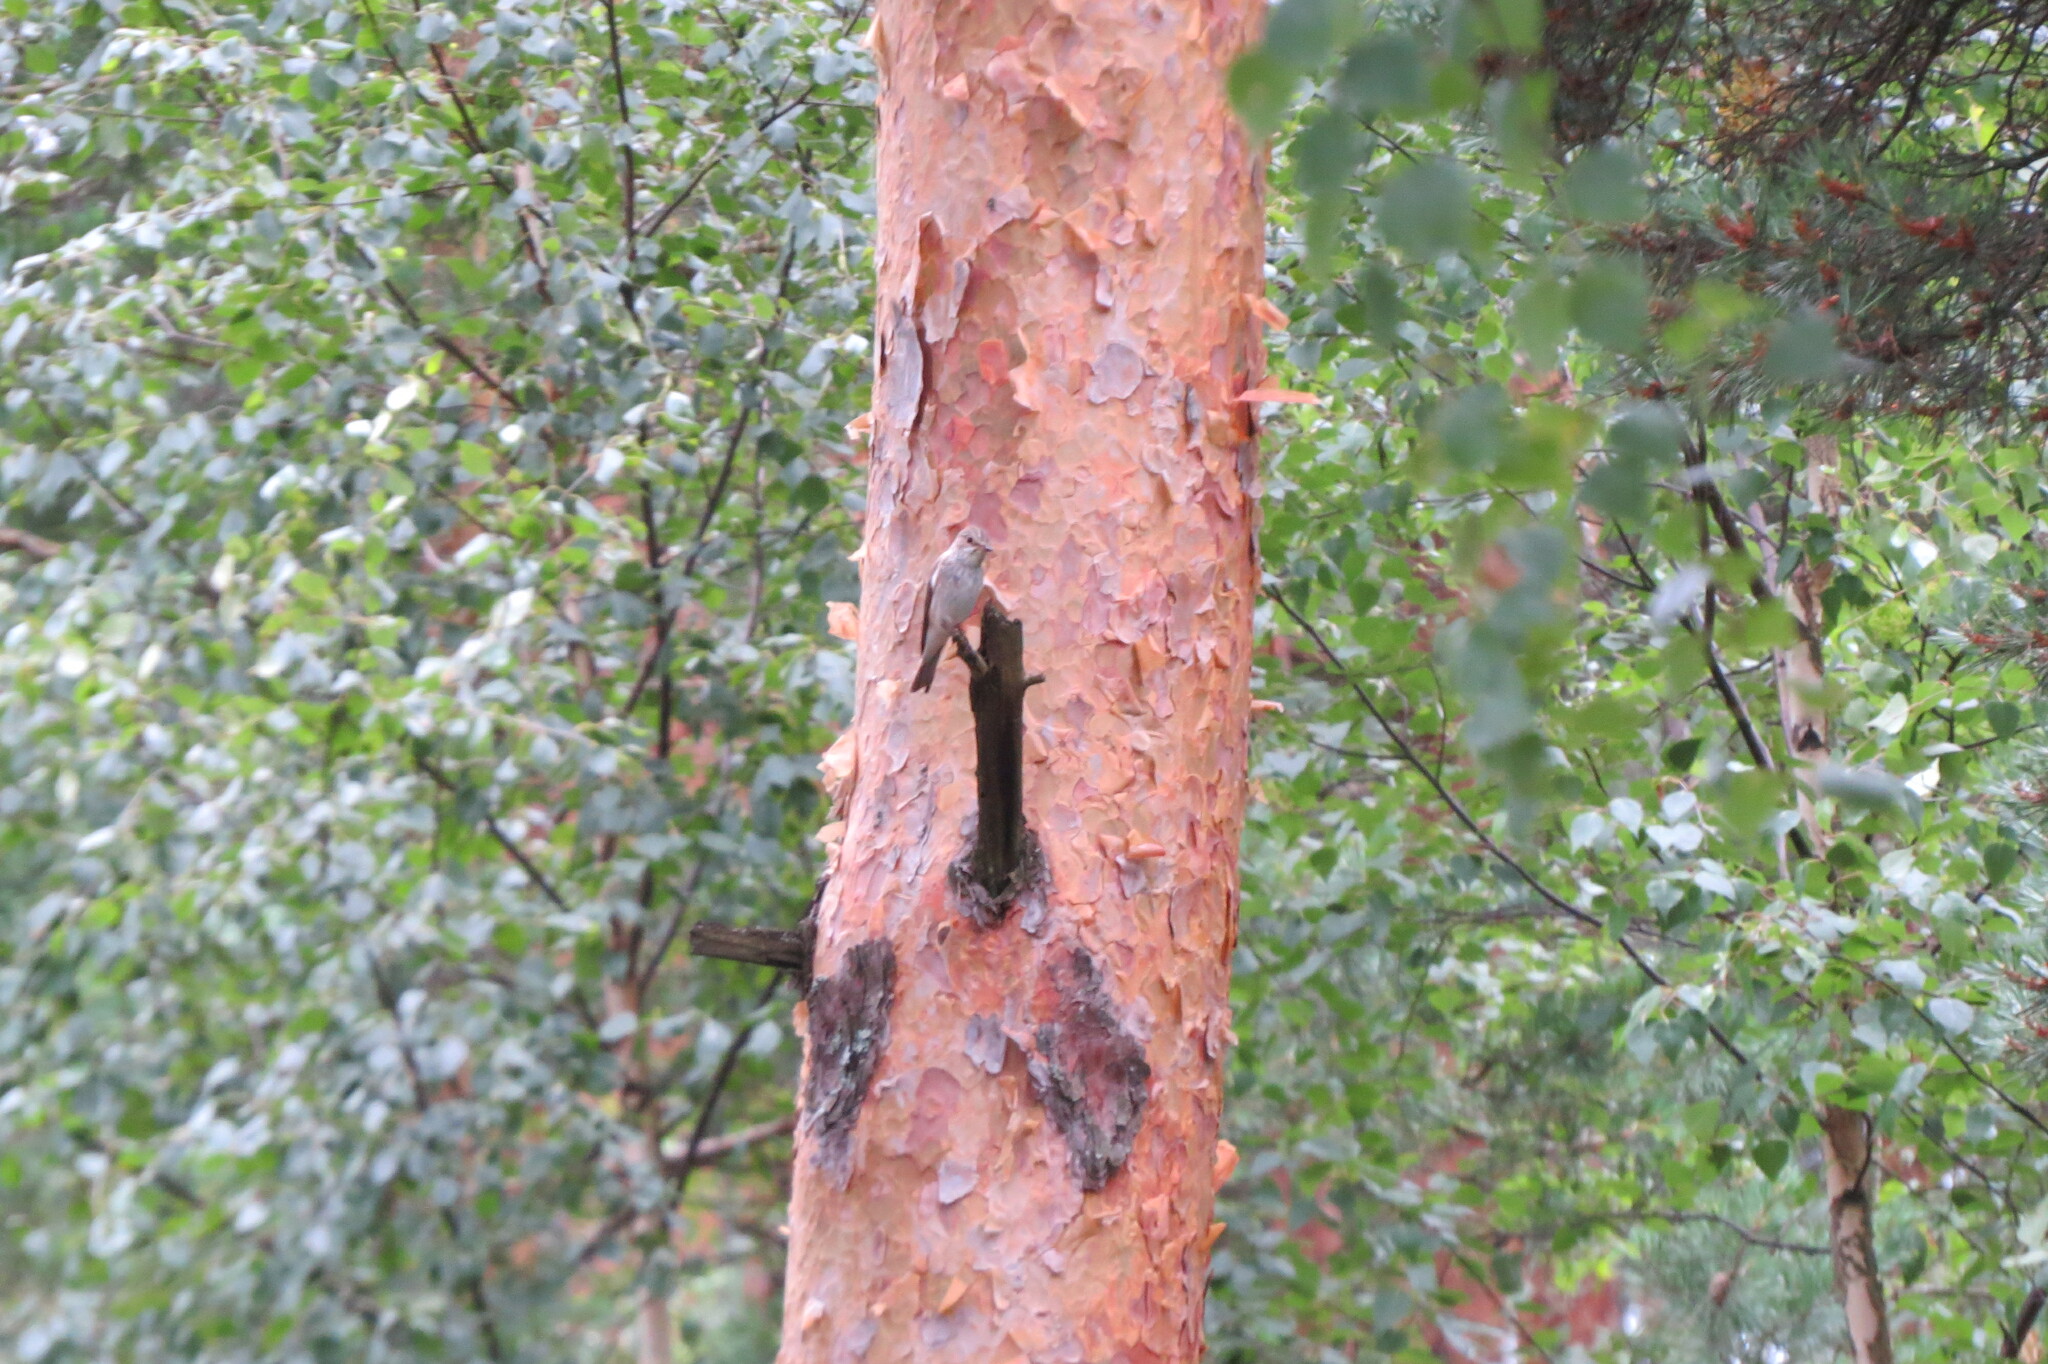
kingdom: Animalia
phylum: Chordata
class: Aves
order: Passeriformes
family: Muscicapidae
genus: Muscicapa
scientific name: Muscicapa striata
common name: Spotted flycatcher
